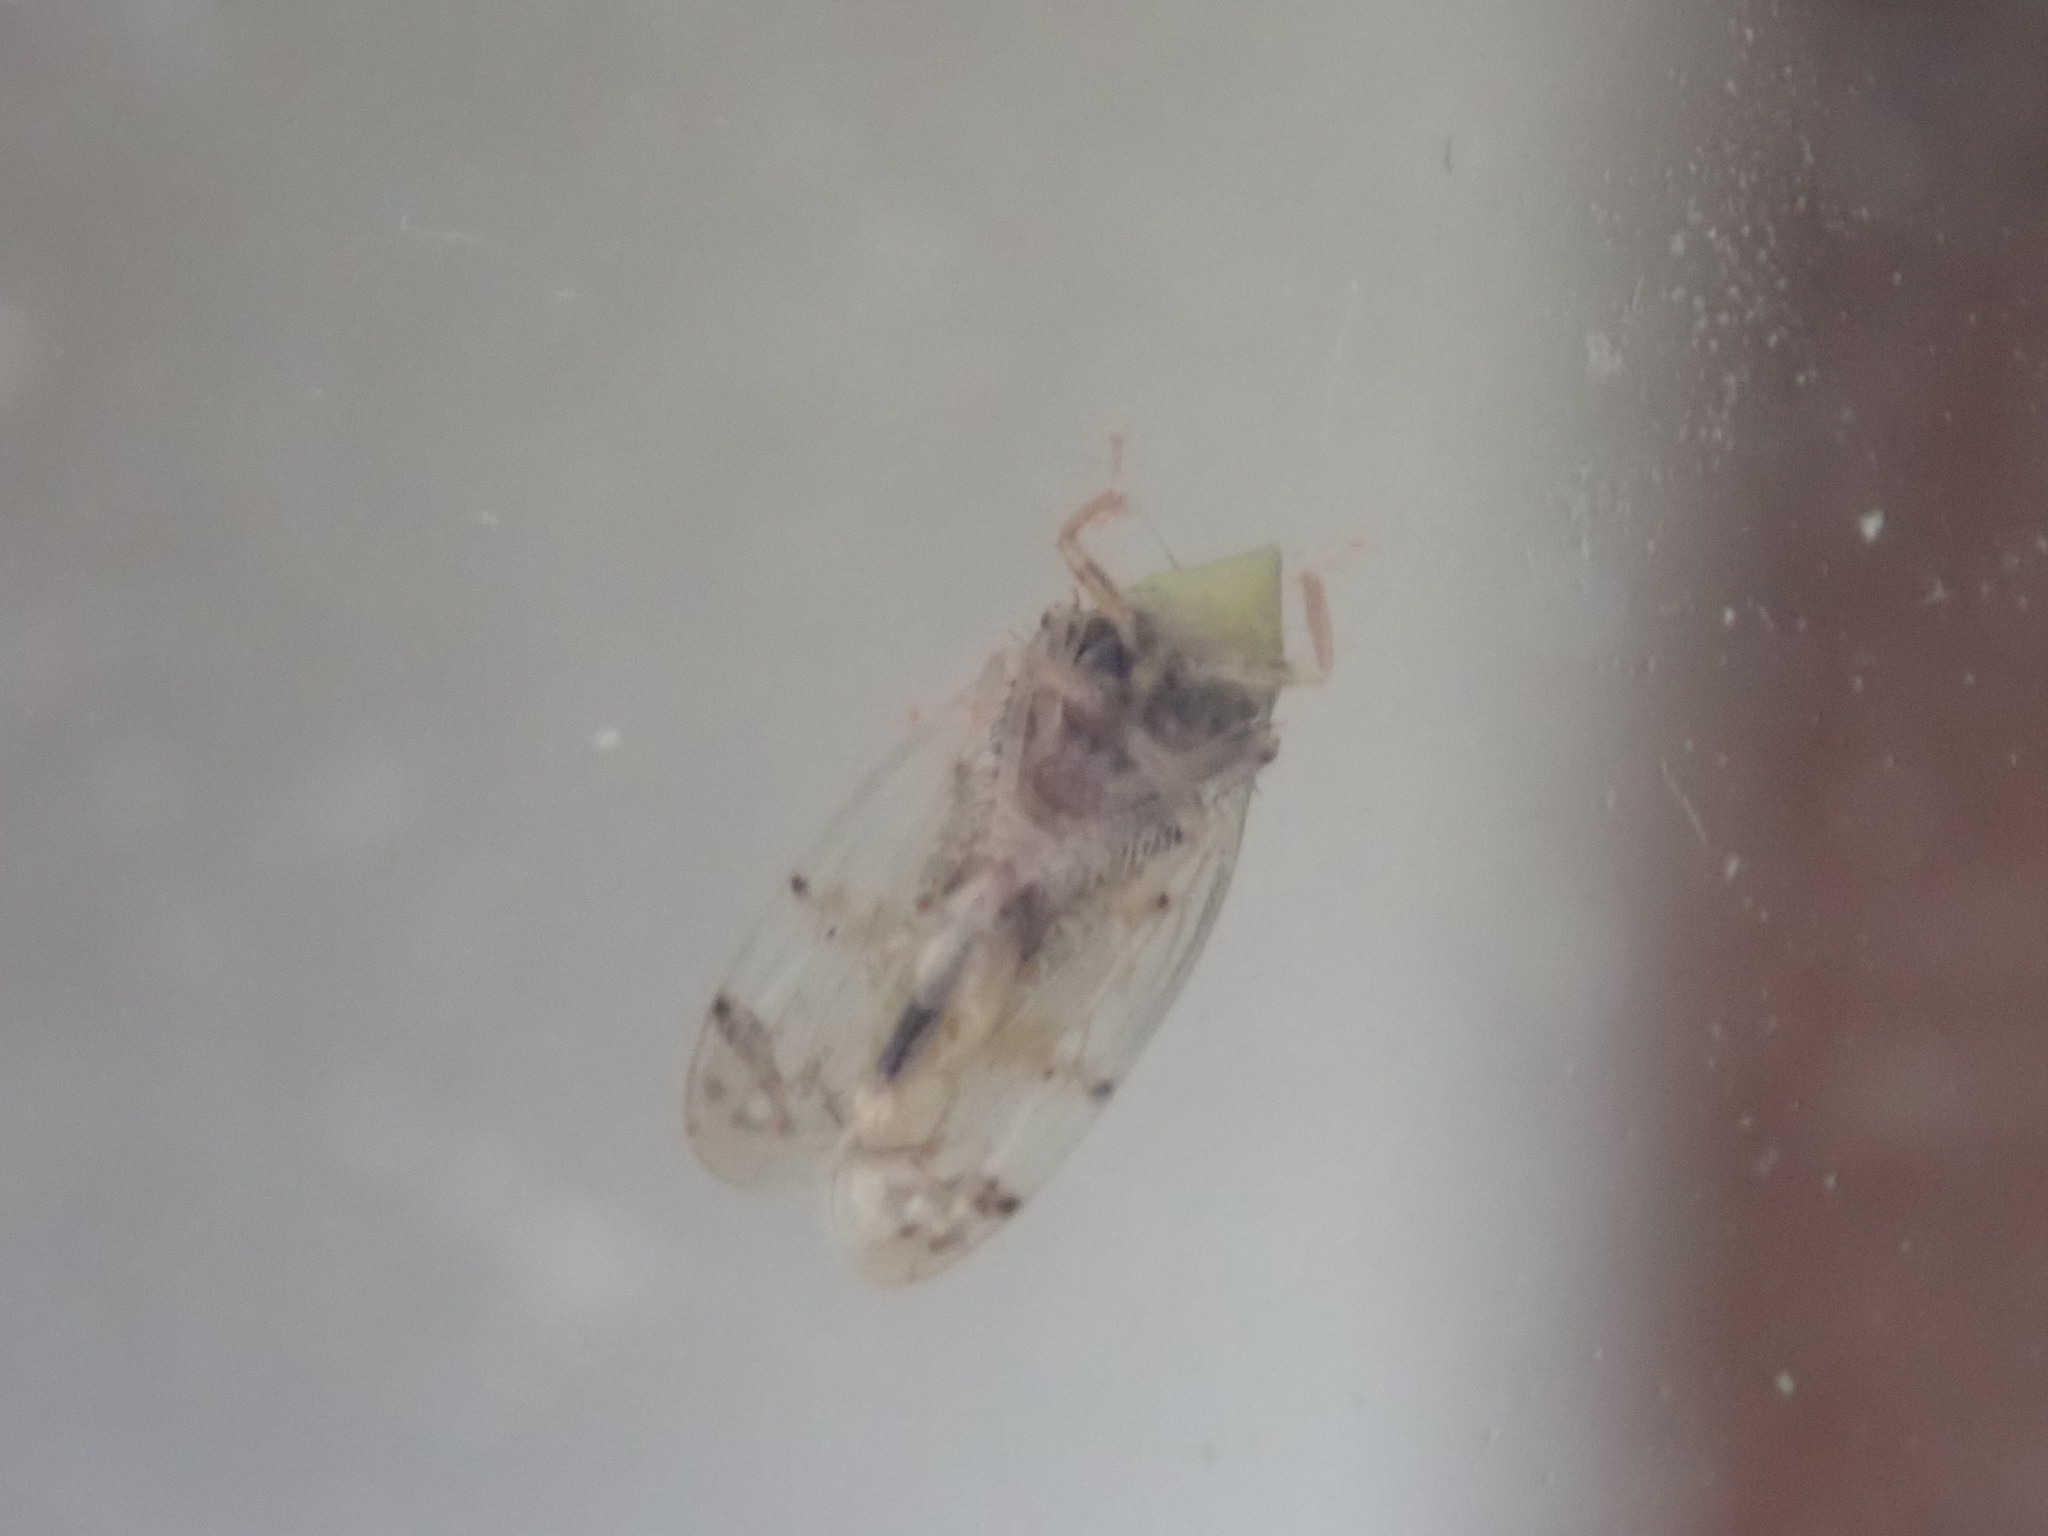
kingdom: Animalia
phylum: Arthropoda
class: Insecta
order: Hemiptera
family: Cicadellidae
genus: Japananus
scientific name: Japananus hyalinus
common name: The japanese maple leafhopper
